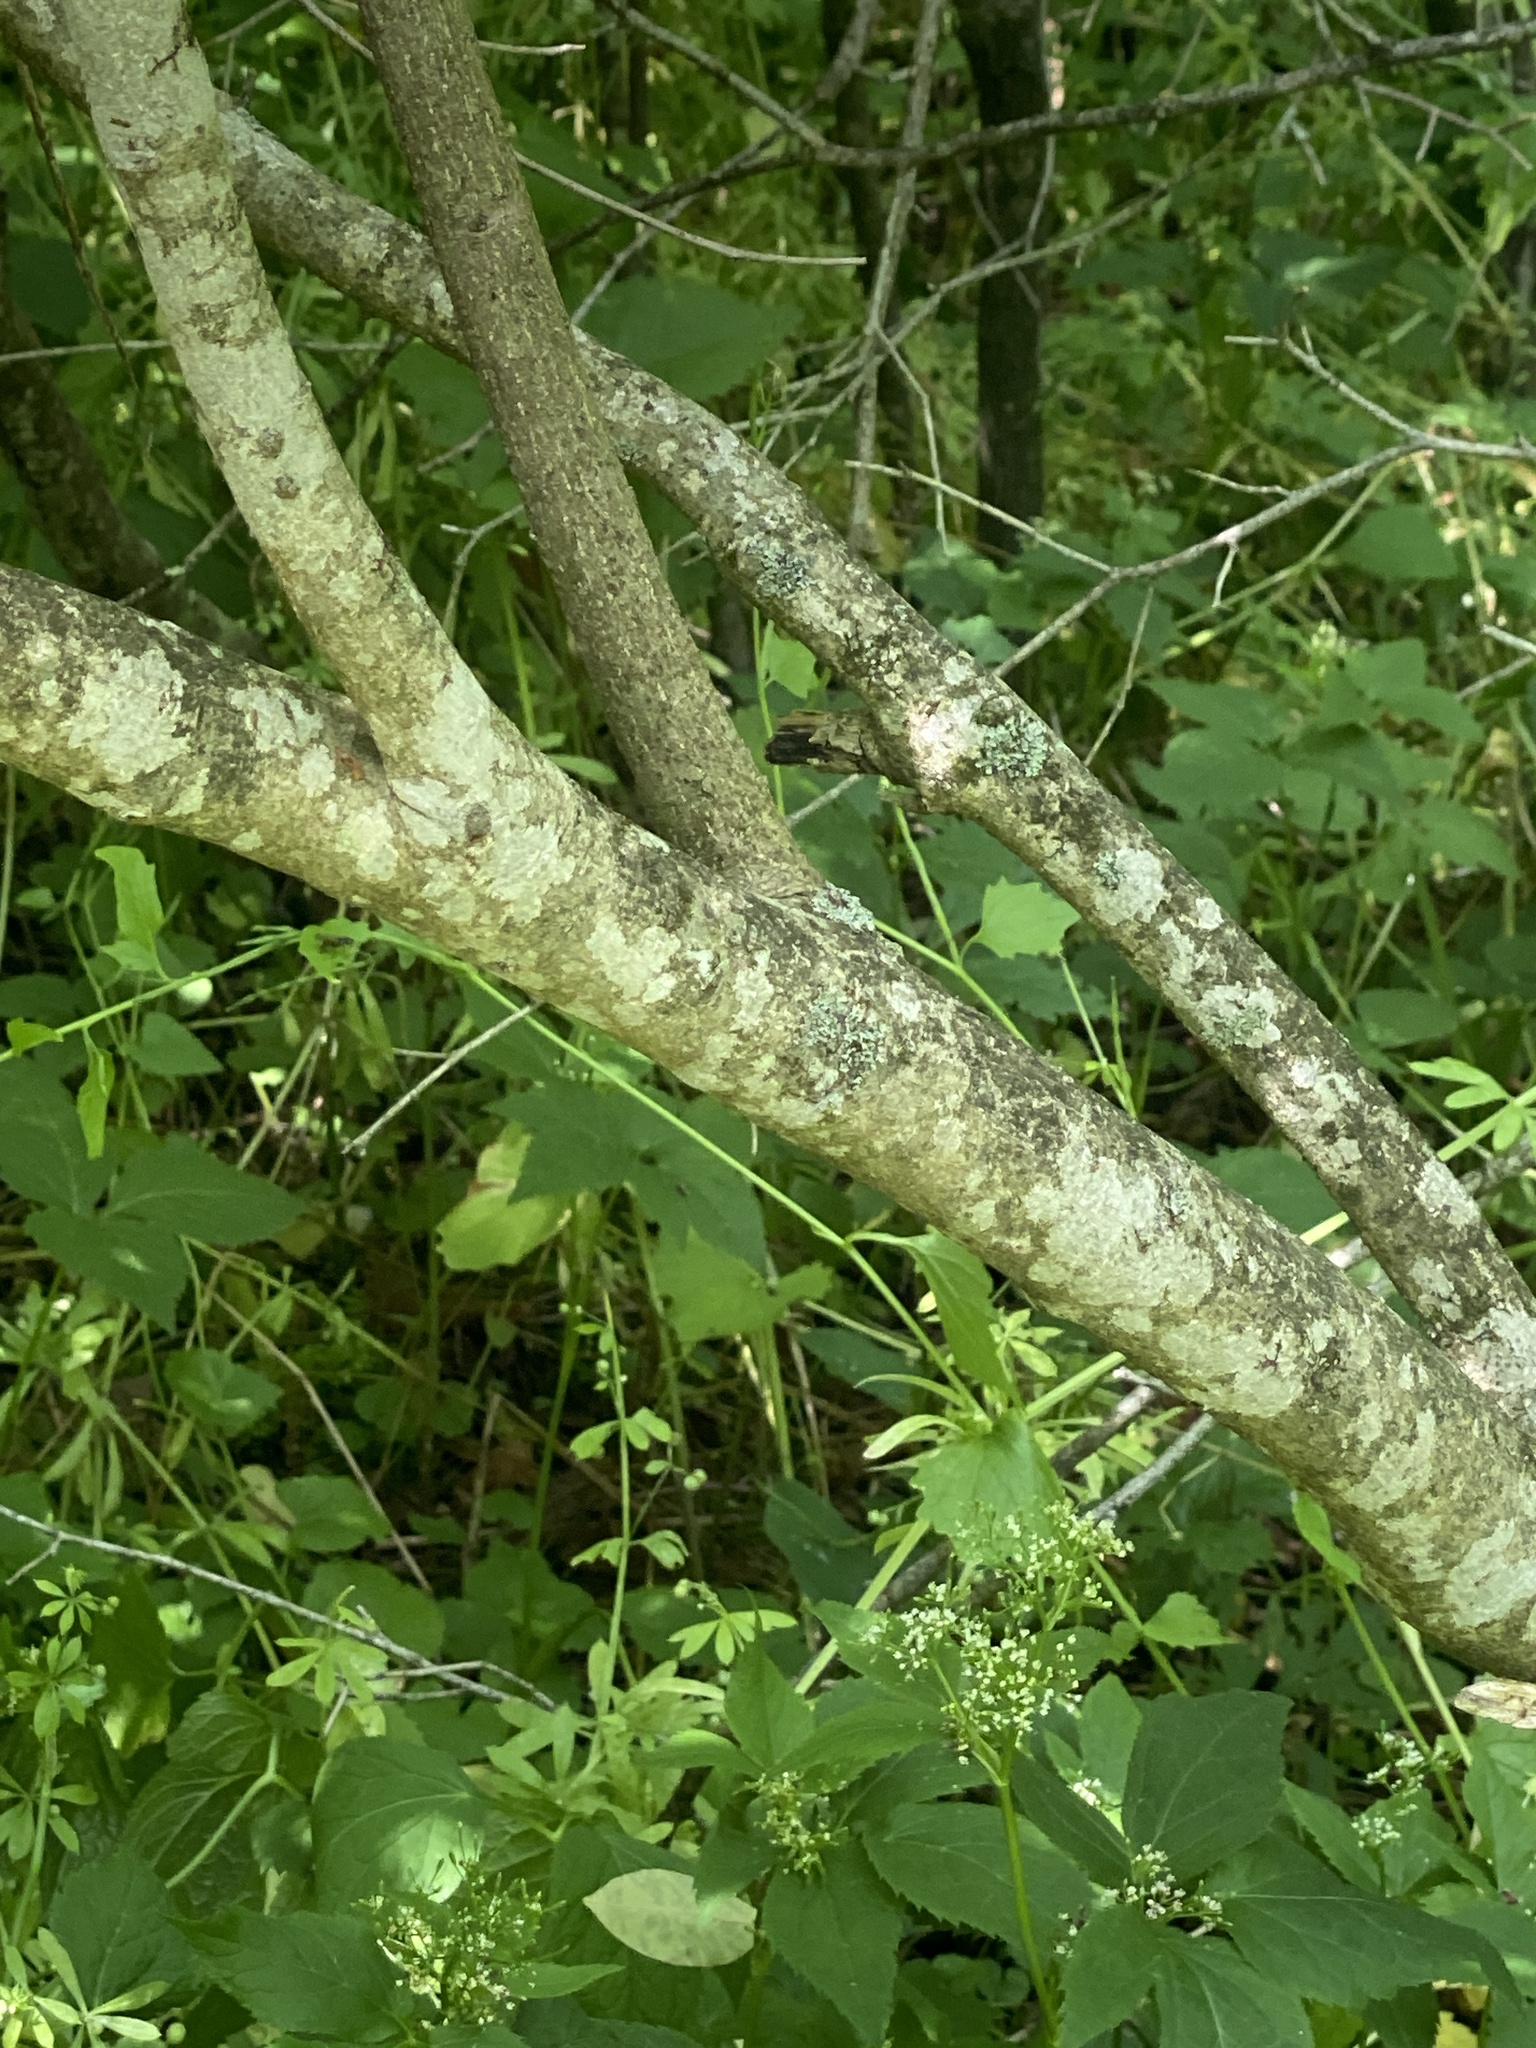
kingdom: Plantae
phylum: Tracheophyta
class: Magnoliopsida
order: Celastrales
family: Celastraceae
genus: Euonymus
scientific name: Euonymus atropurpureus
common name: Eastern wahoo
